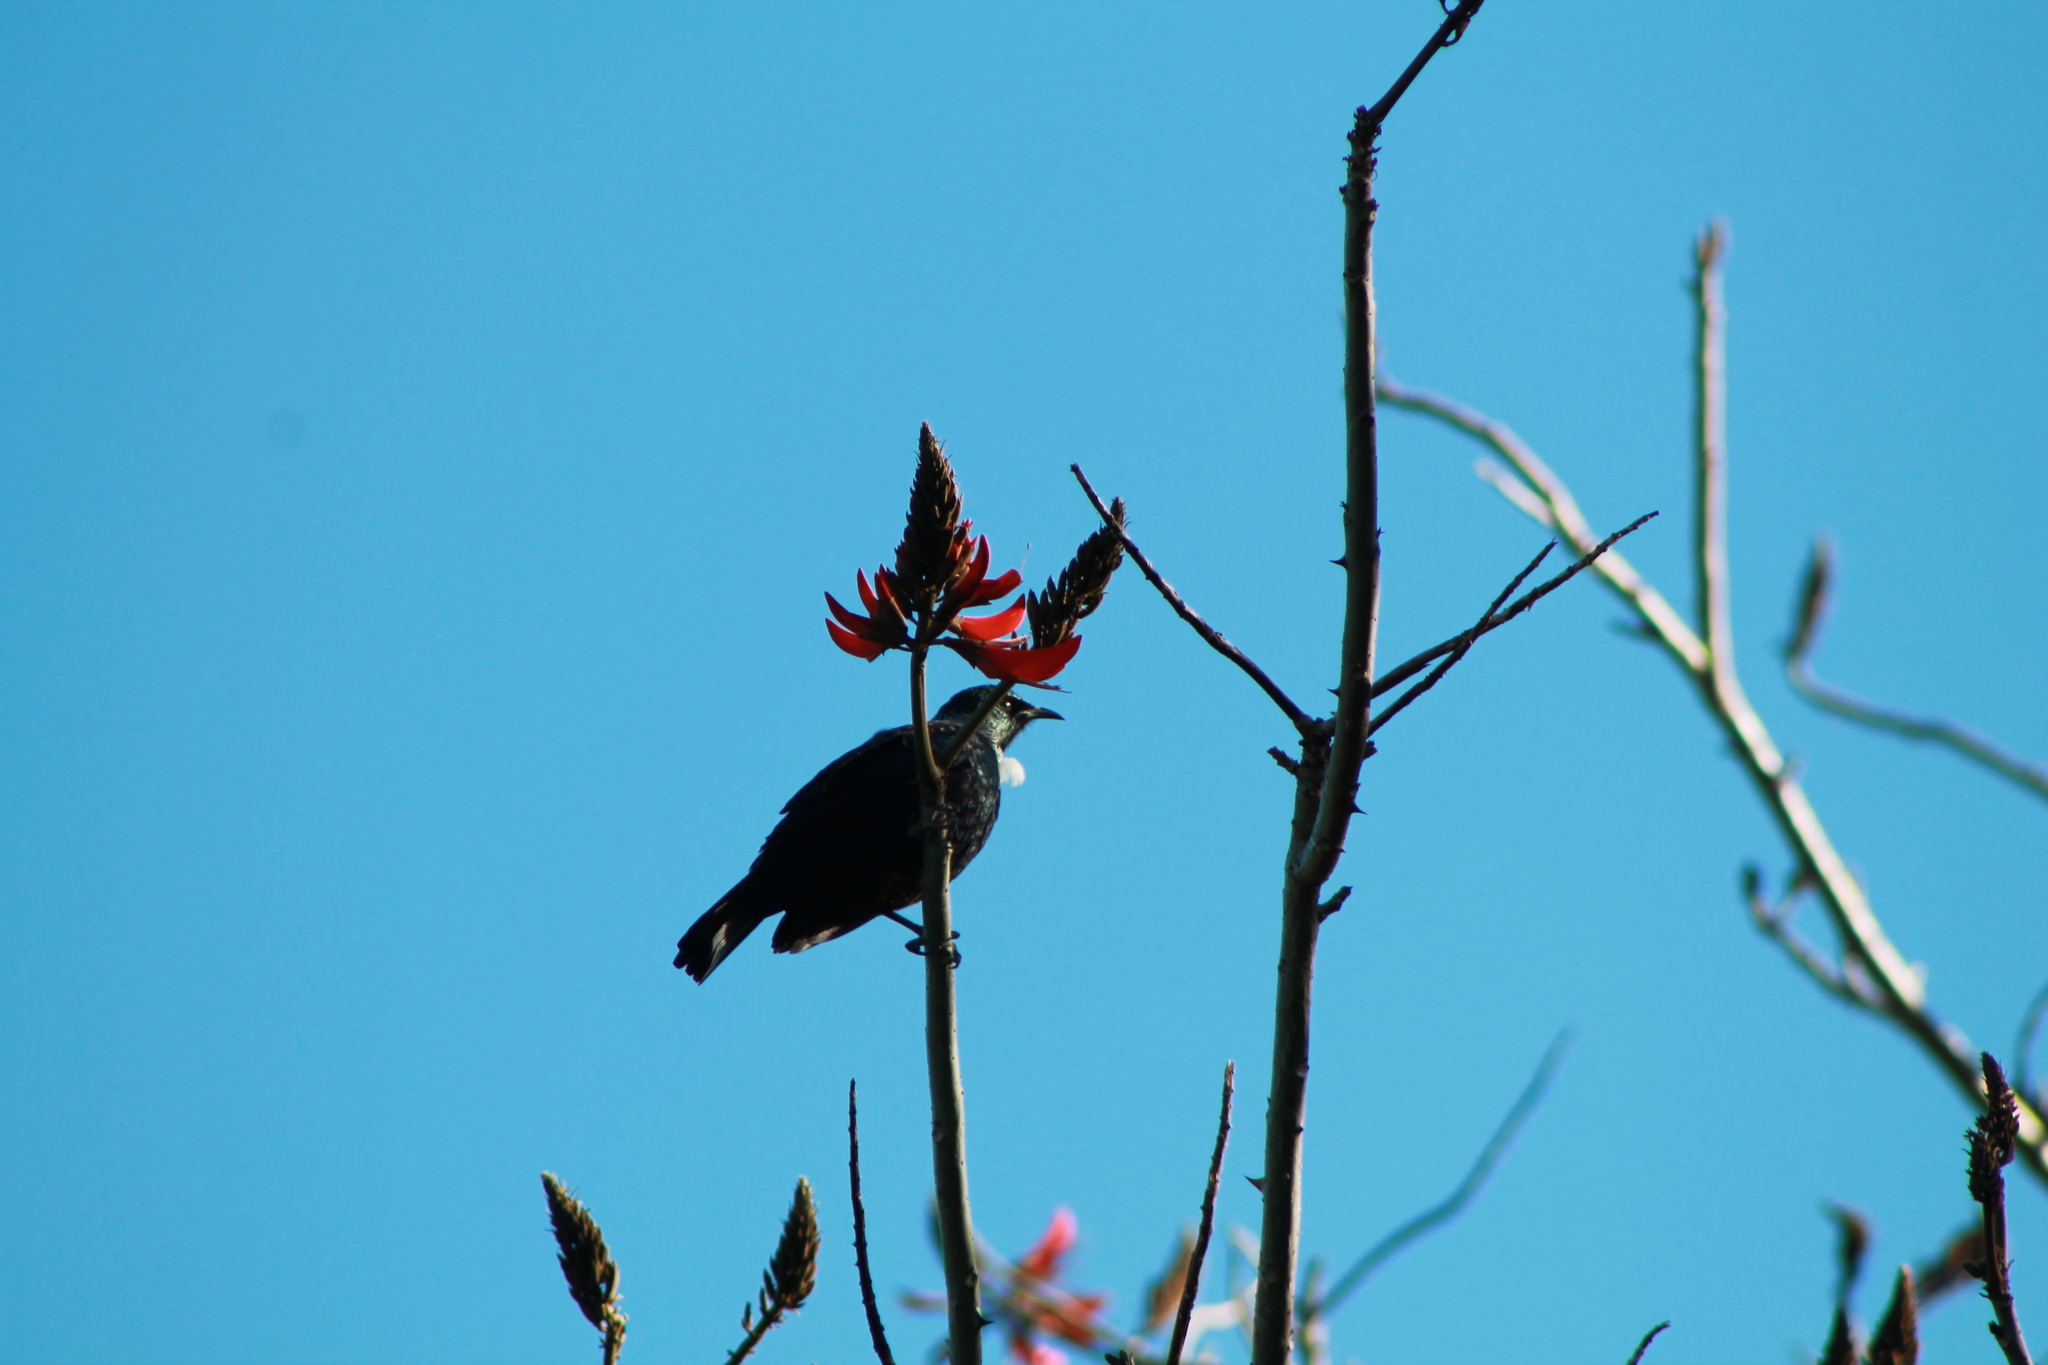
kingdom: Animalia
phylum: Chordata
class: Aves
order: Passeriformes
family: Meliphagidae
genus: Prosthemadera
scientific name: Prosthemadera novaeseelandiae
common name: Tui
